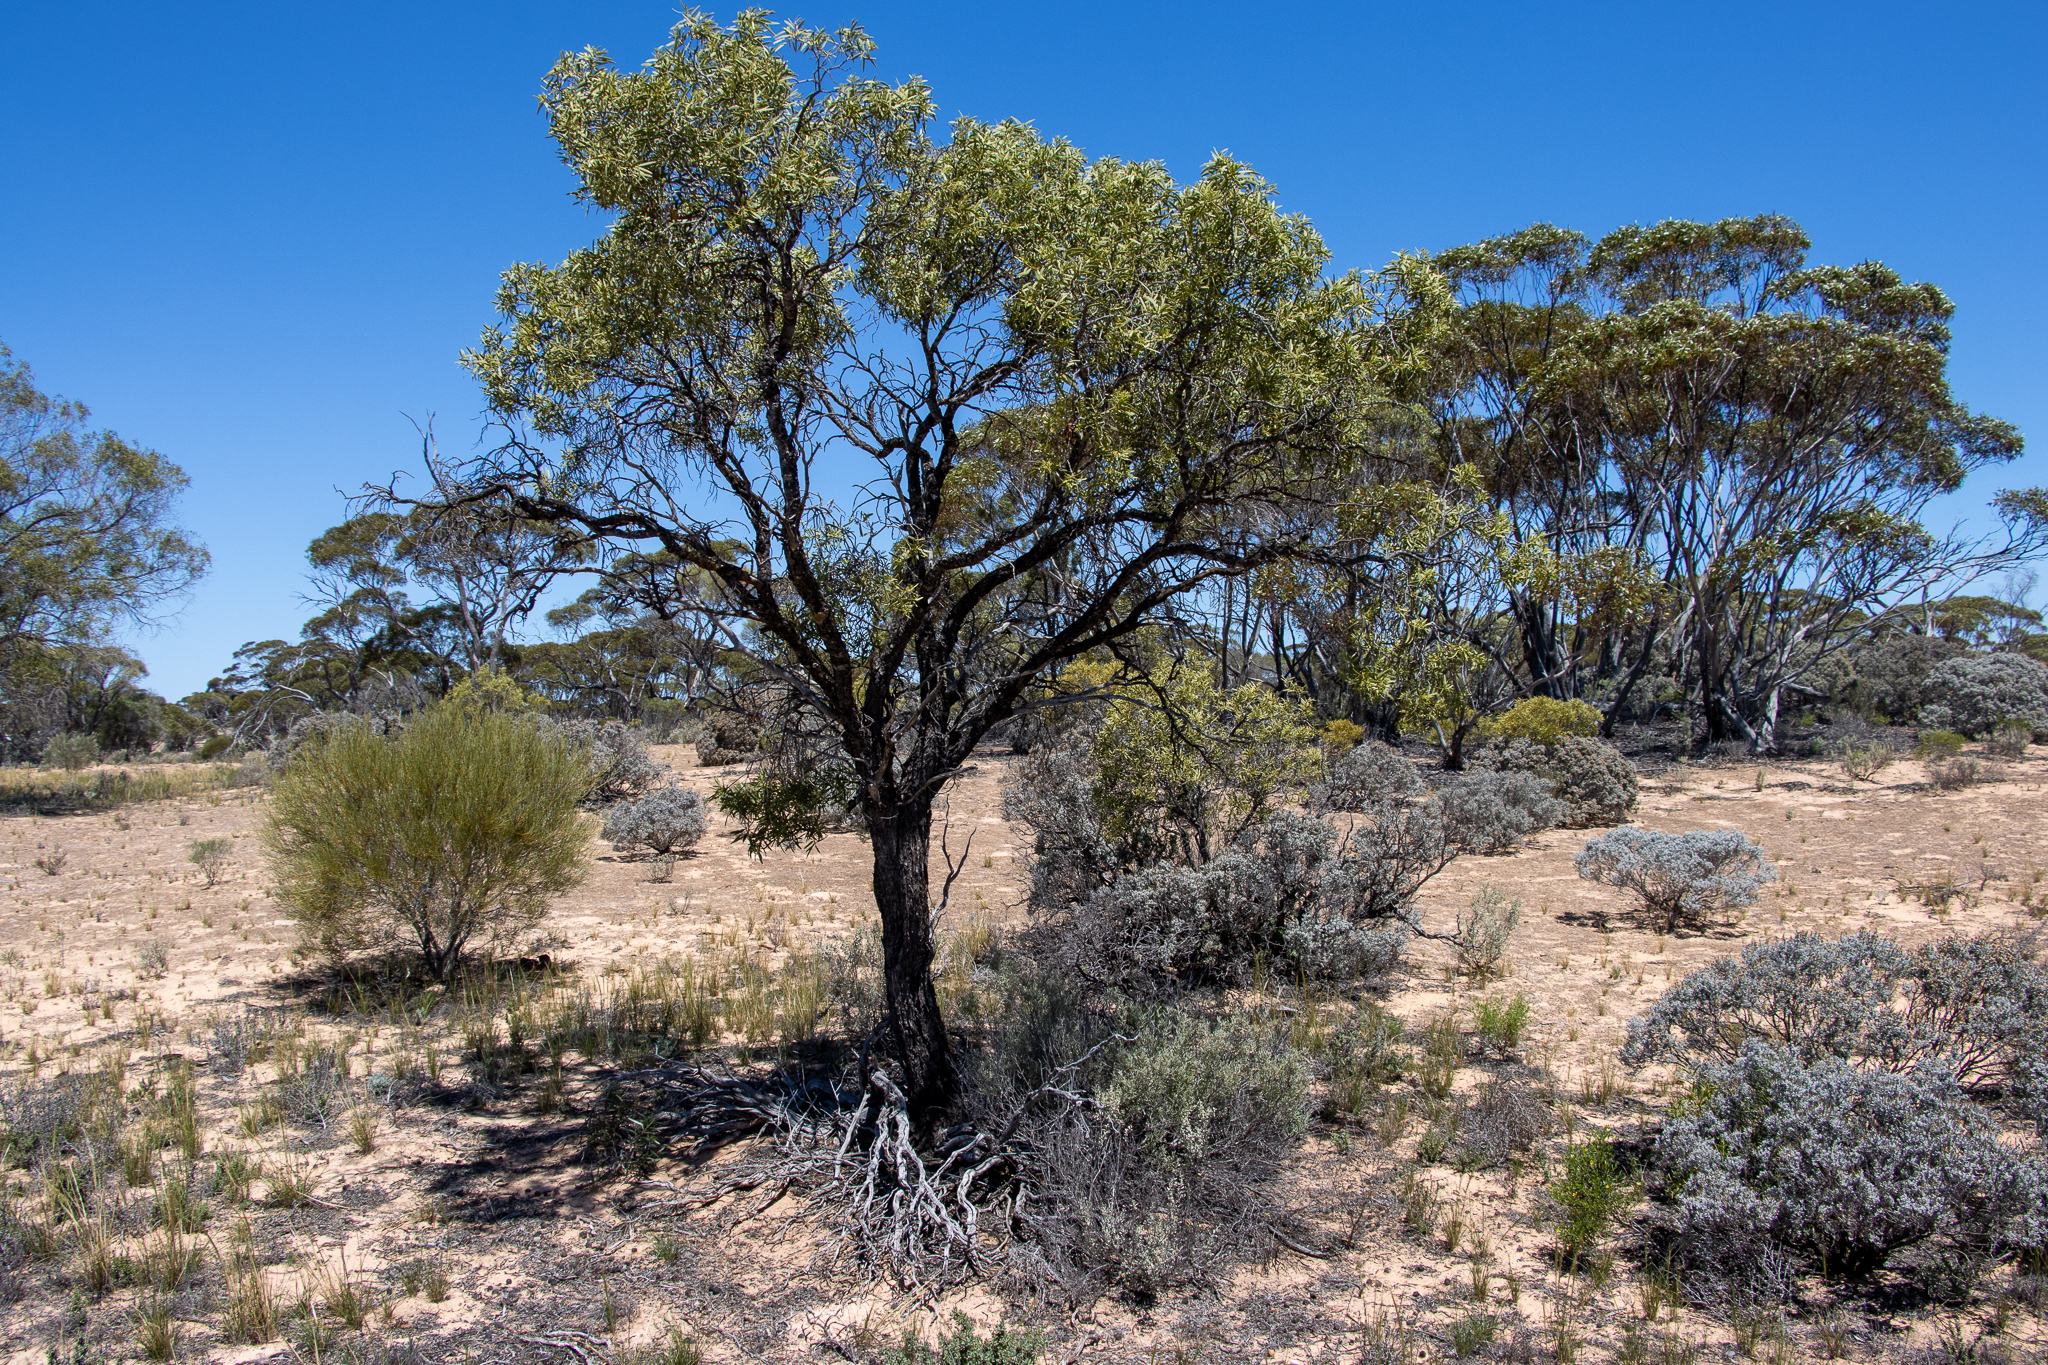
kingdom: Plantae
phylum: Tracheophyta
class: Magnoliopsida
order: Santalales
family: Santalaceae
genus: Santalum
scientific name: Santalum acuminatum
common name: Sweet quandong
